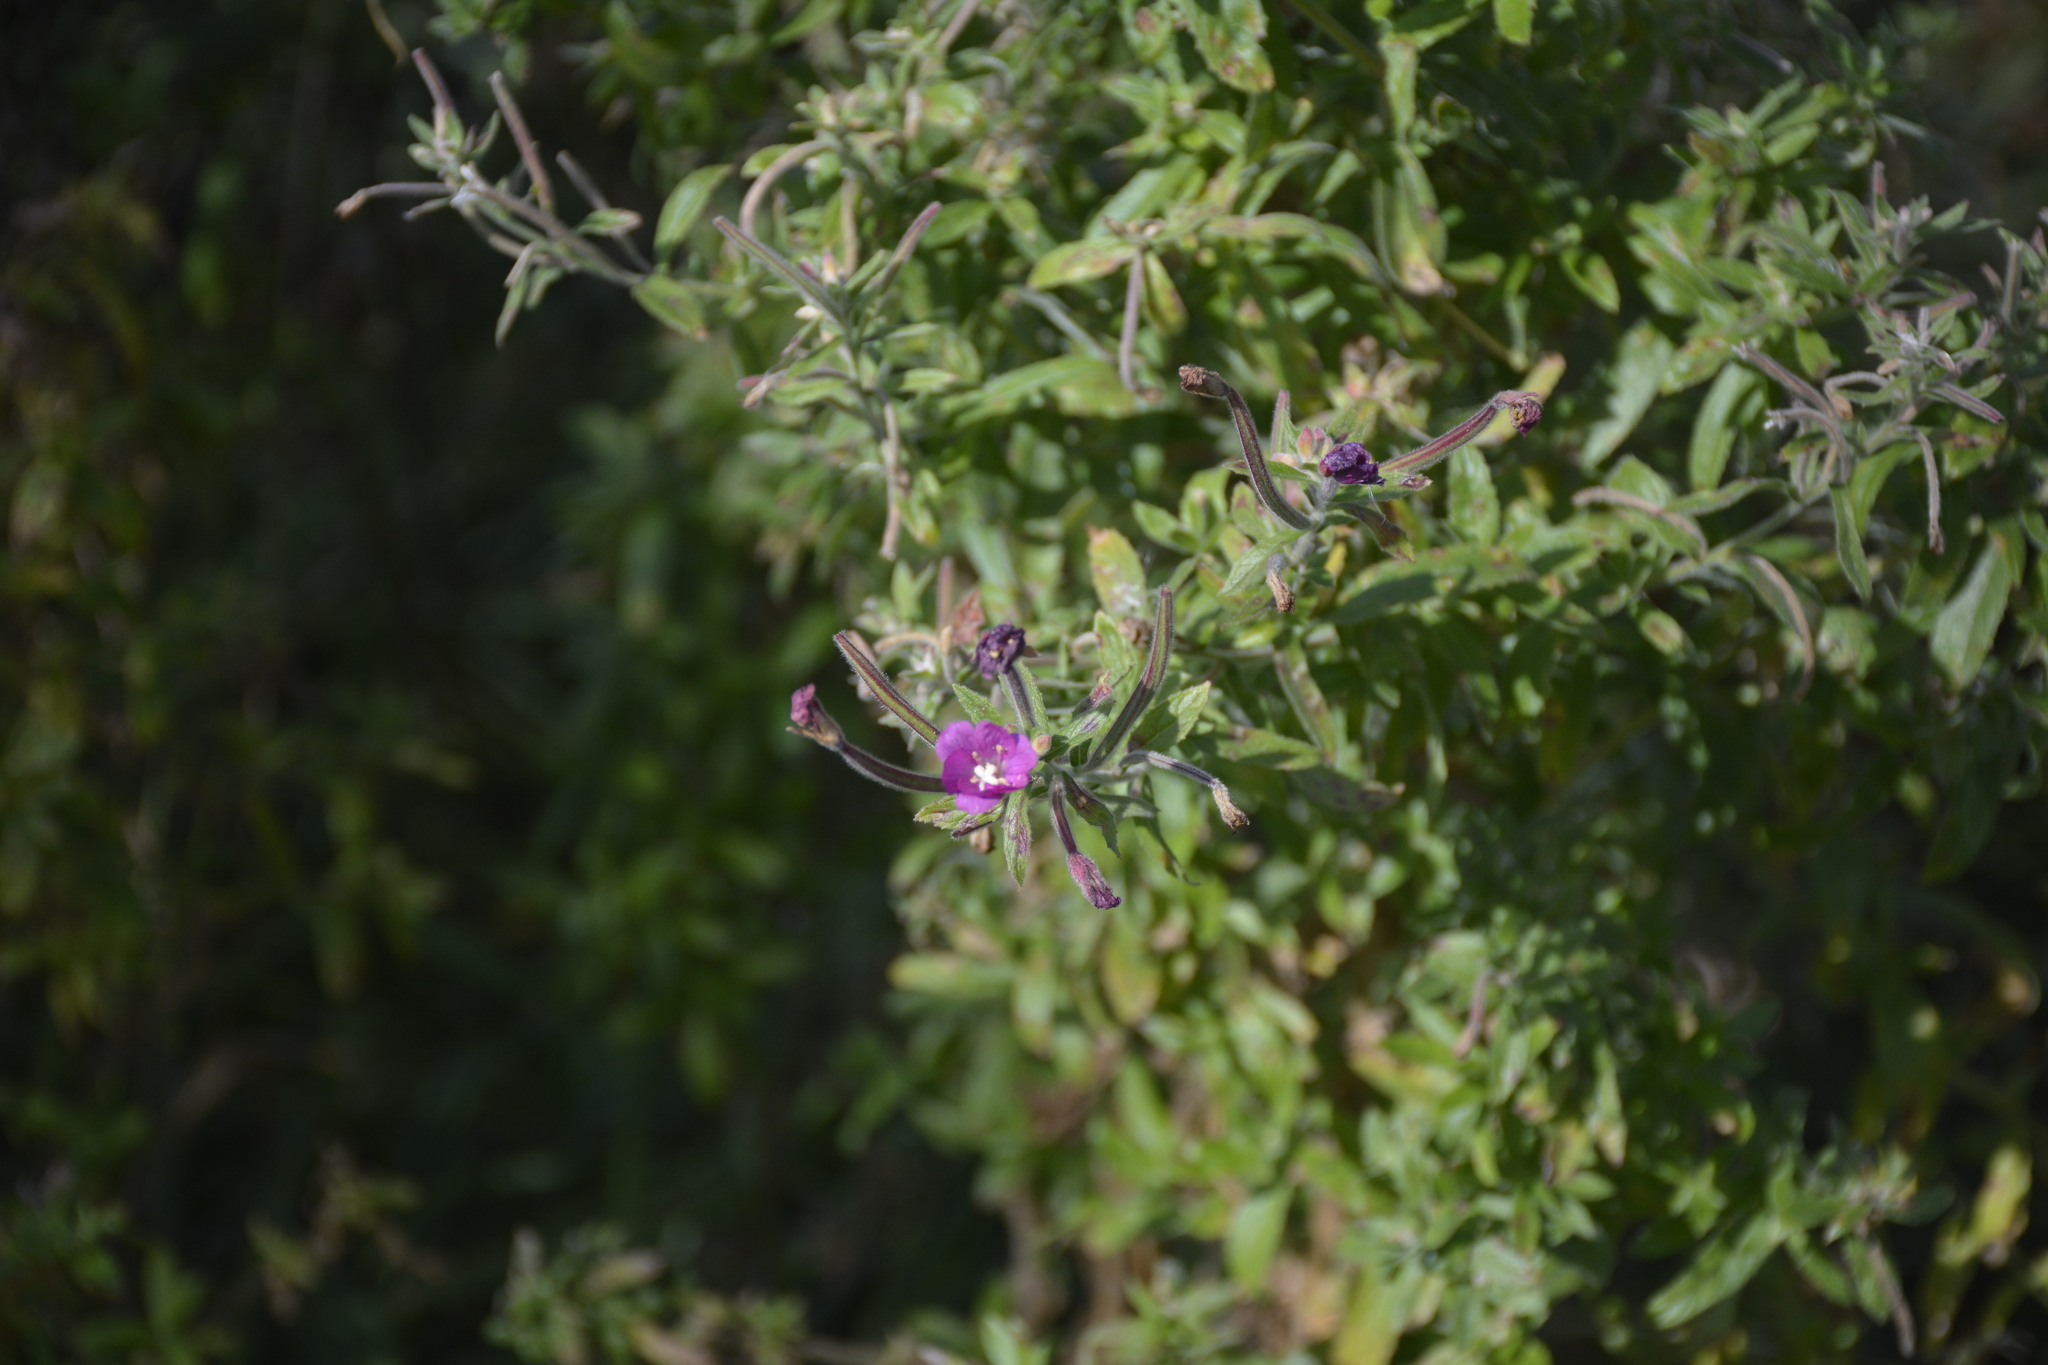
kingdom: Plantae
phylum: Tracheophyta
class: Magnoliopsida
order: Myrtales
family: Onagraceae
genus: Epilobium
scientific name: Epilobium hirsutum
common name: Great willowherb
